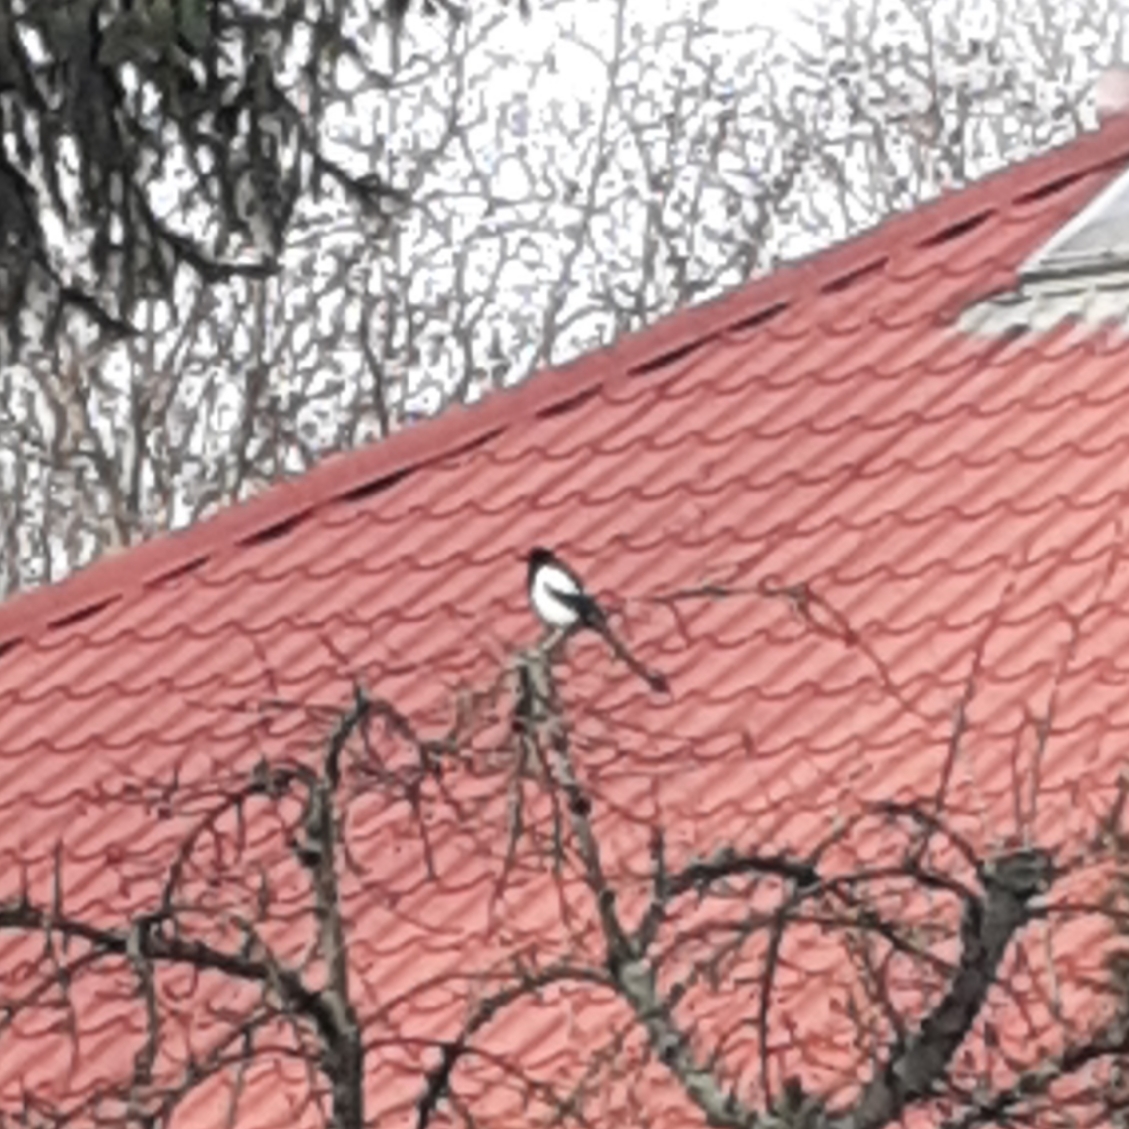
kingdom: Animalia
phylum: Chordata
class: Aves
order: Passeriformes
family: Corvidae
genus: Pica
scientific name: Pica pica
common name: Eurasian magpie
